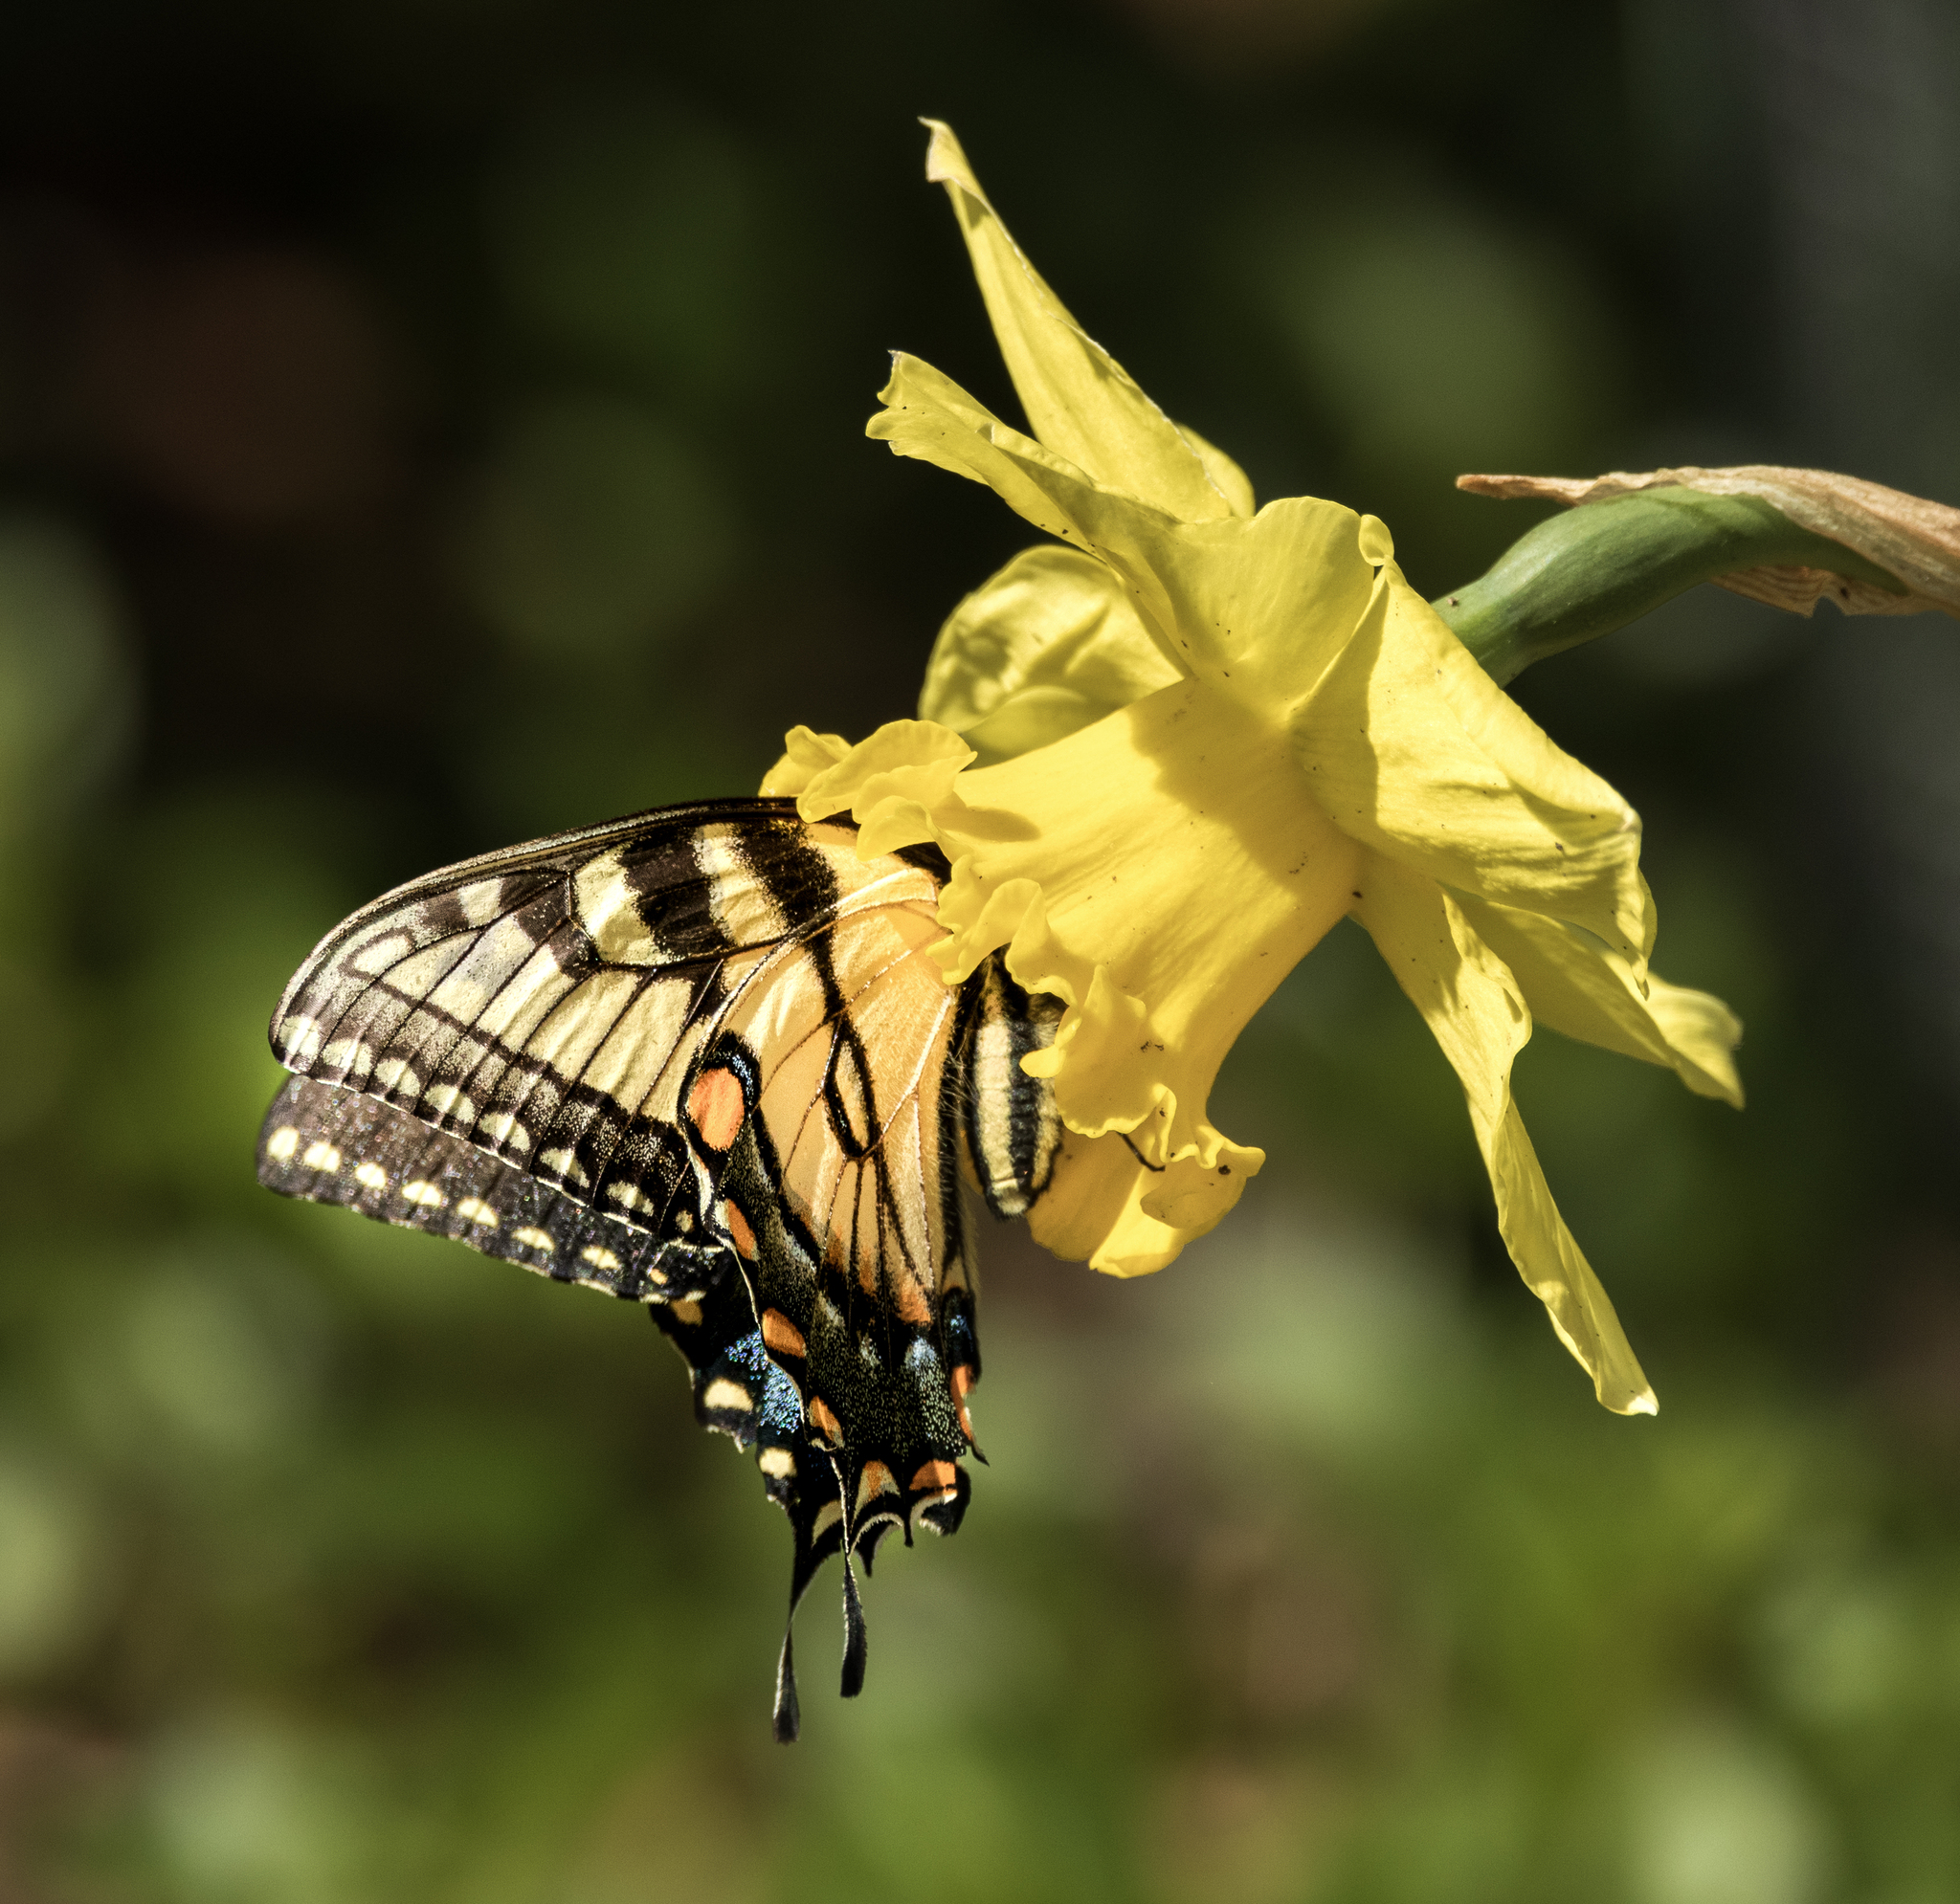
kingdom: Animalia
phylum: Arthropoda
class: Insecta
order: Lepidoptera
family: Papilionidae
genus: Papilio
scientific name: Papilio glaucus
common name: Tiger swallowtail
